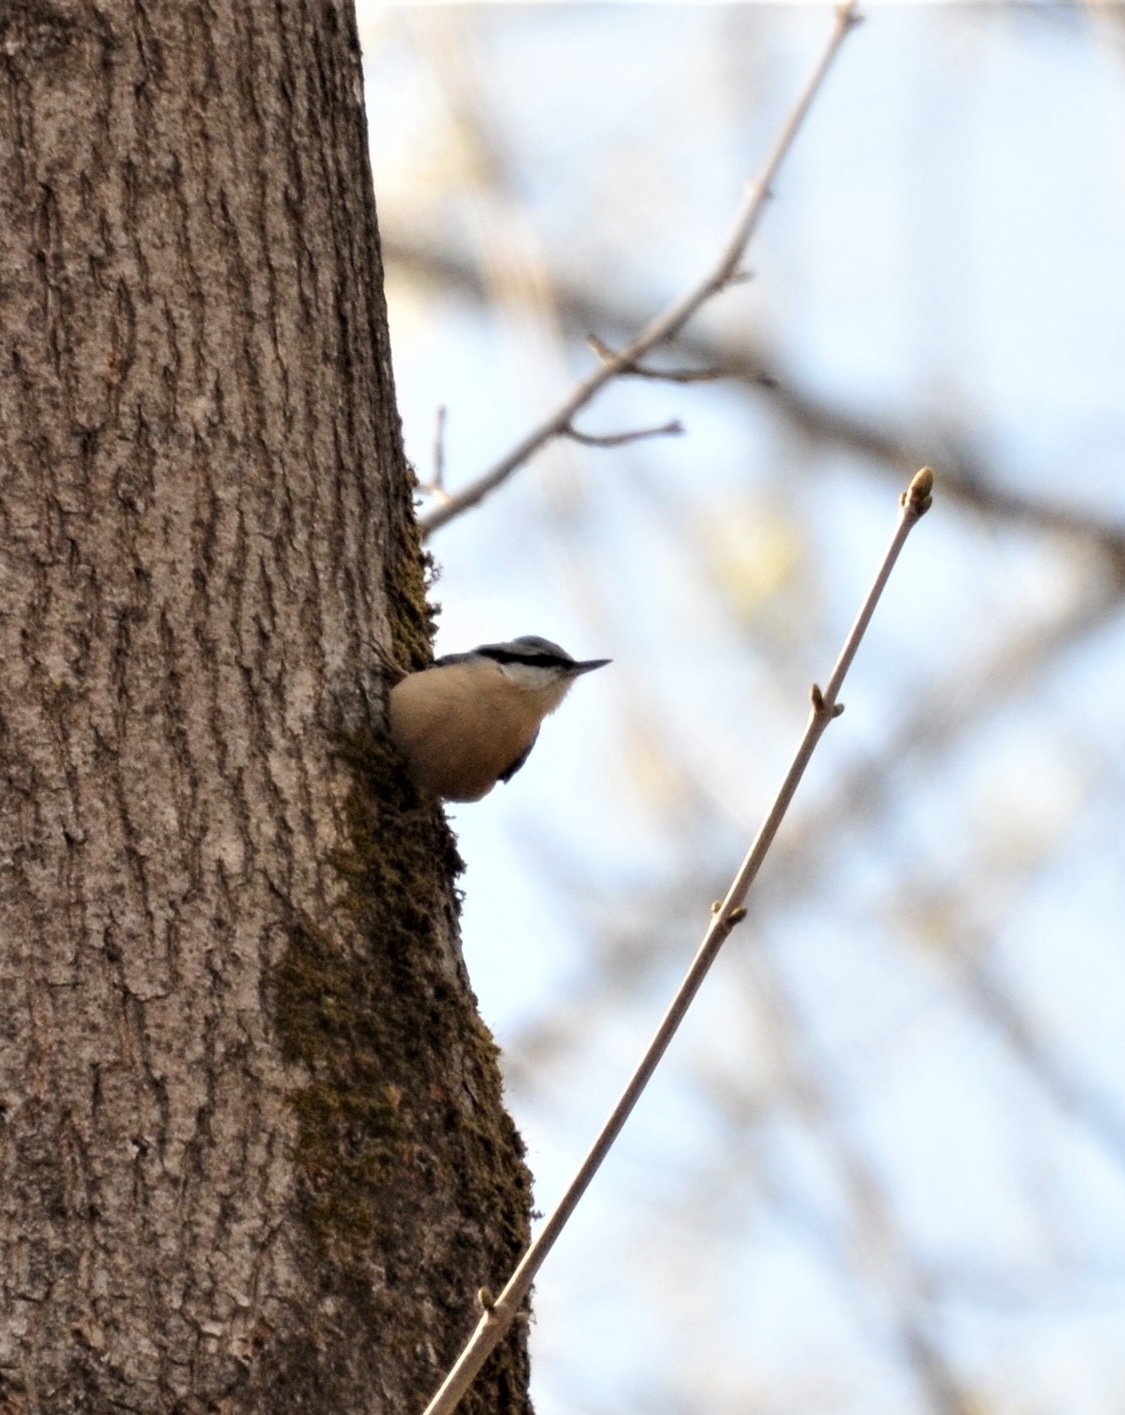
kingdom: Animalia
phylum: Chordata
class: Aves
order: Passeriformes
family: Sittidae
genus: Sitta
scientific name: Sitta europaea
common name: Eurasian nuthatch
